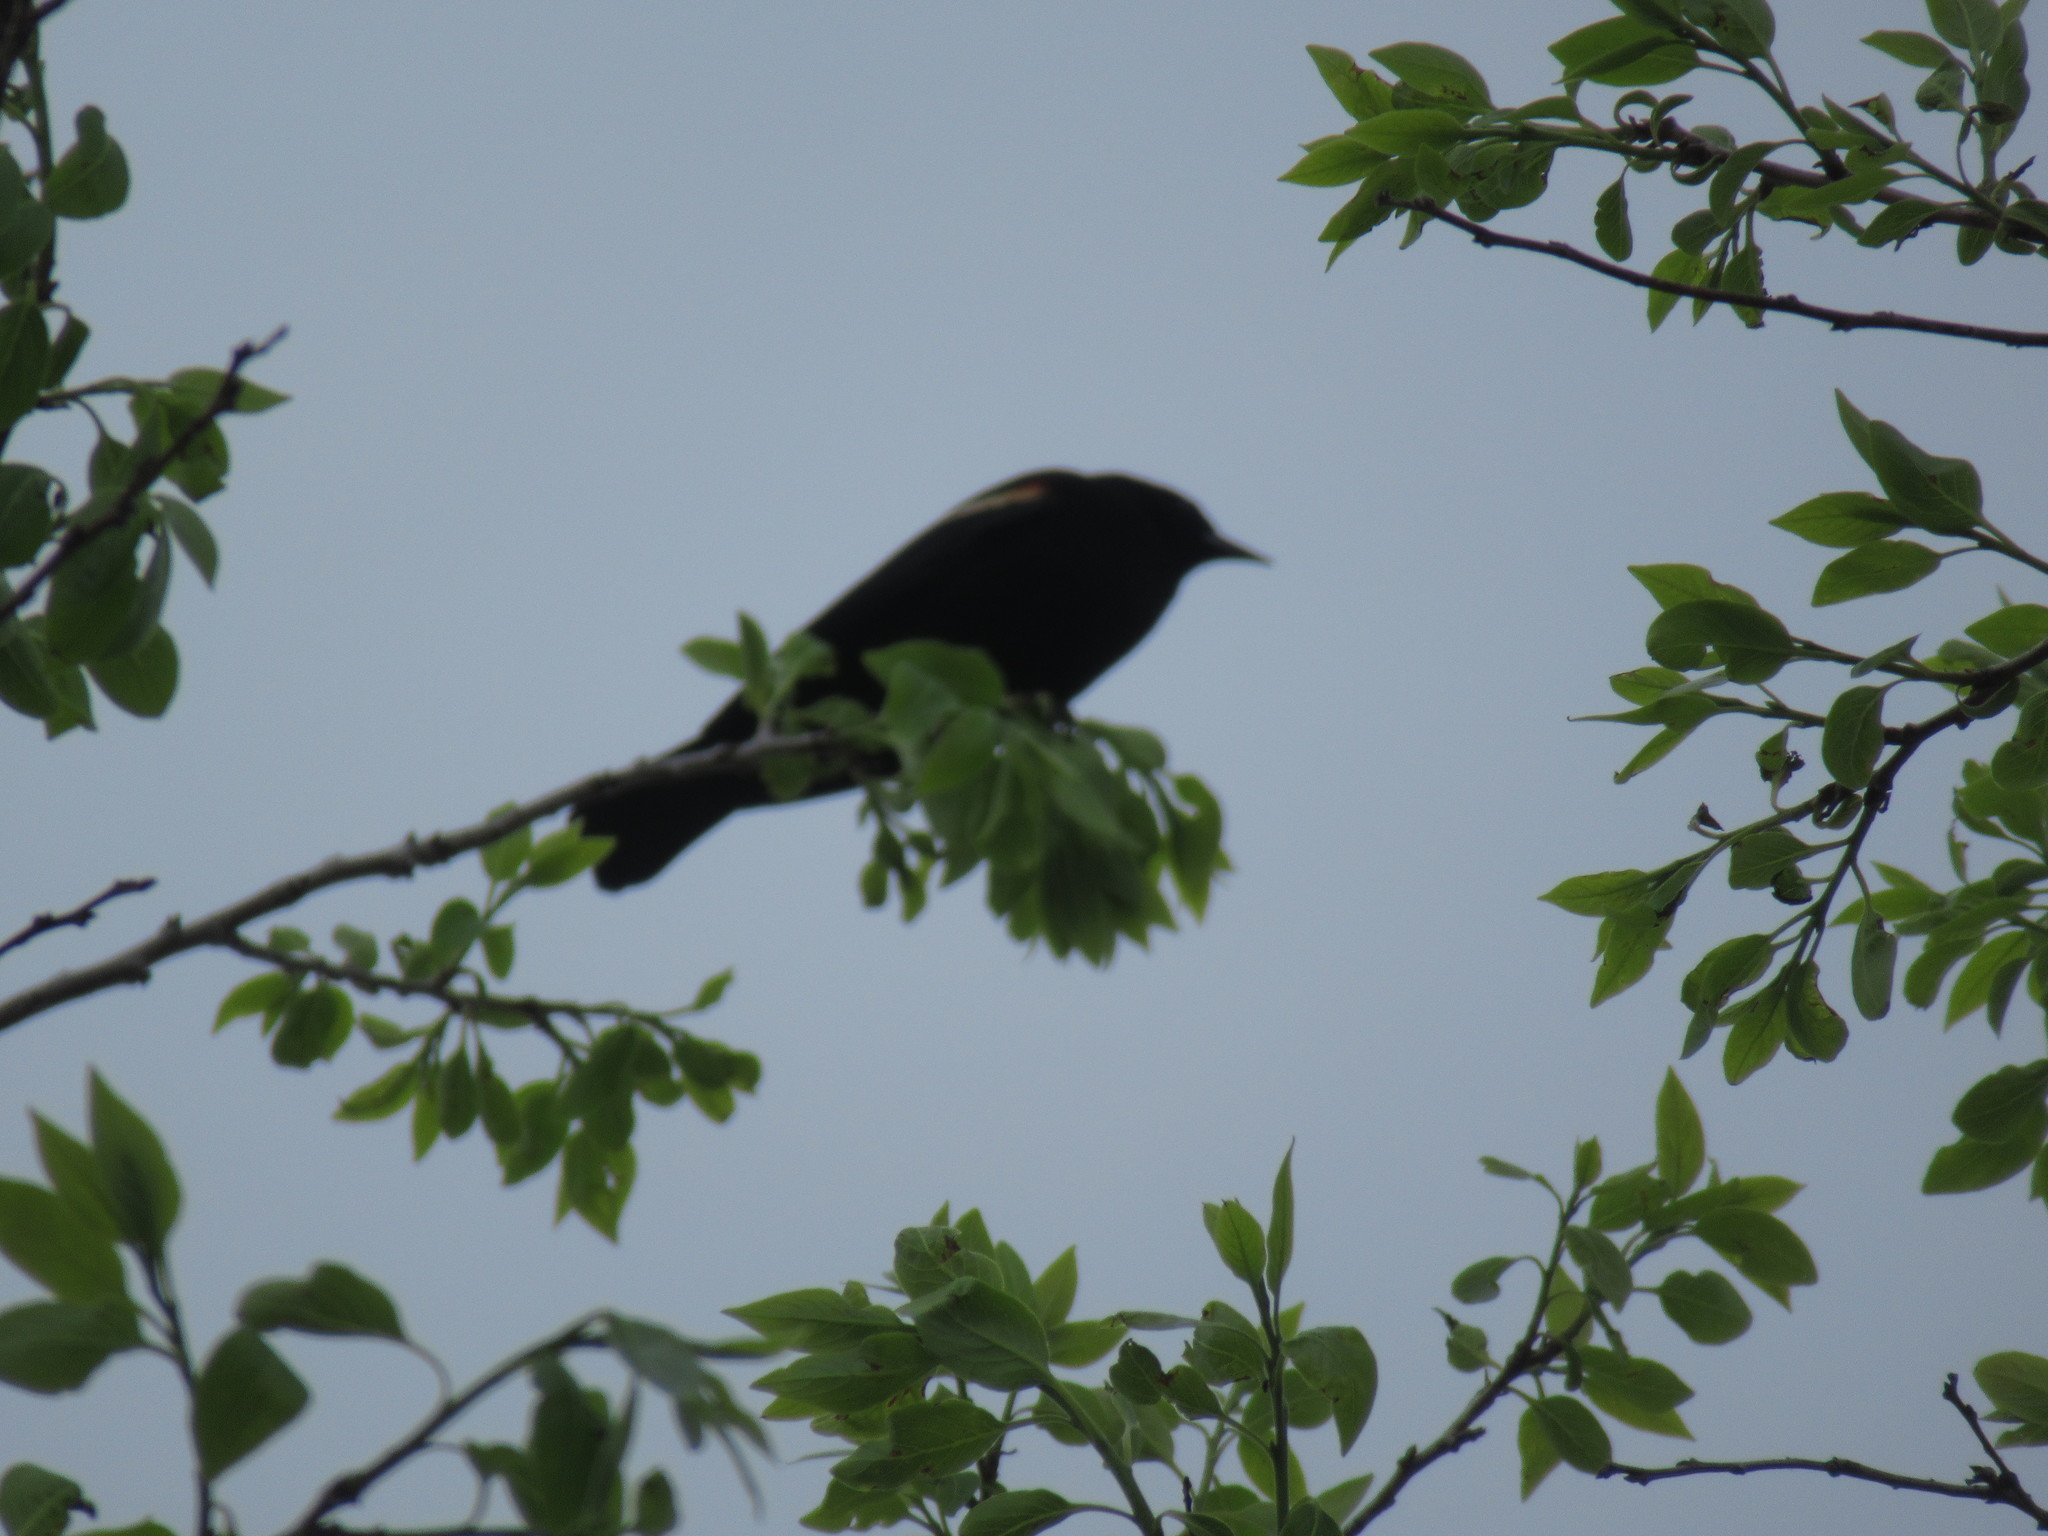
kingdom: Animalia
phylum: Chordata
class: Aves
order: Passeriformes
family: Icteridae
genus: Agelaius
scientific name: Agelaius phoeniceus
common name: Red-winged blackbird
